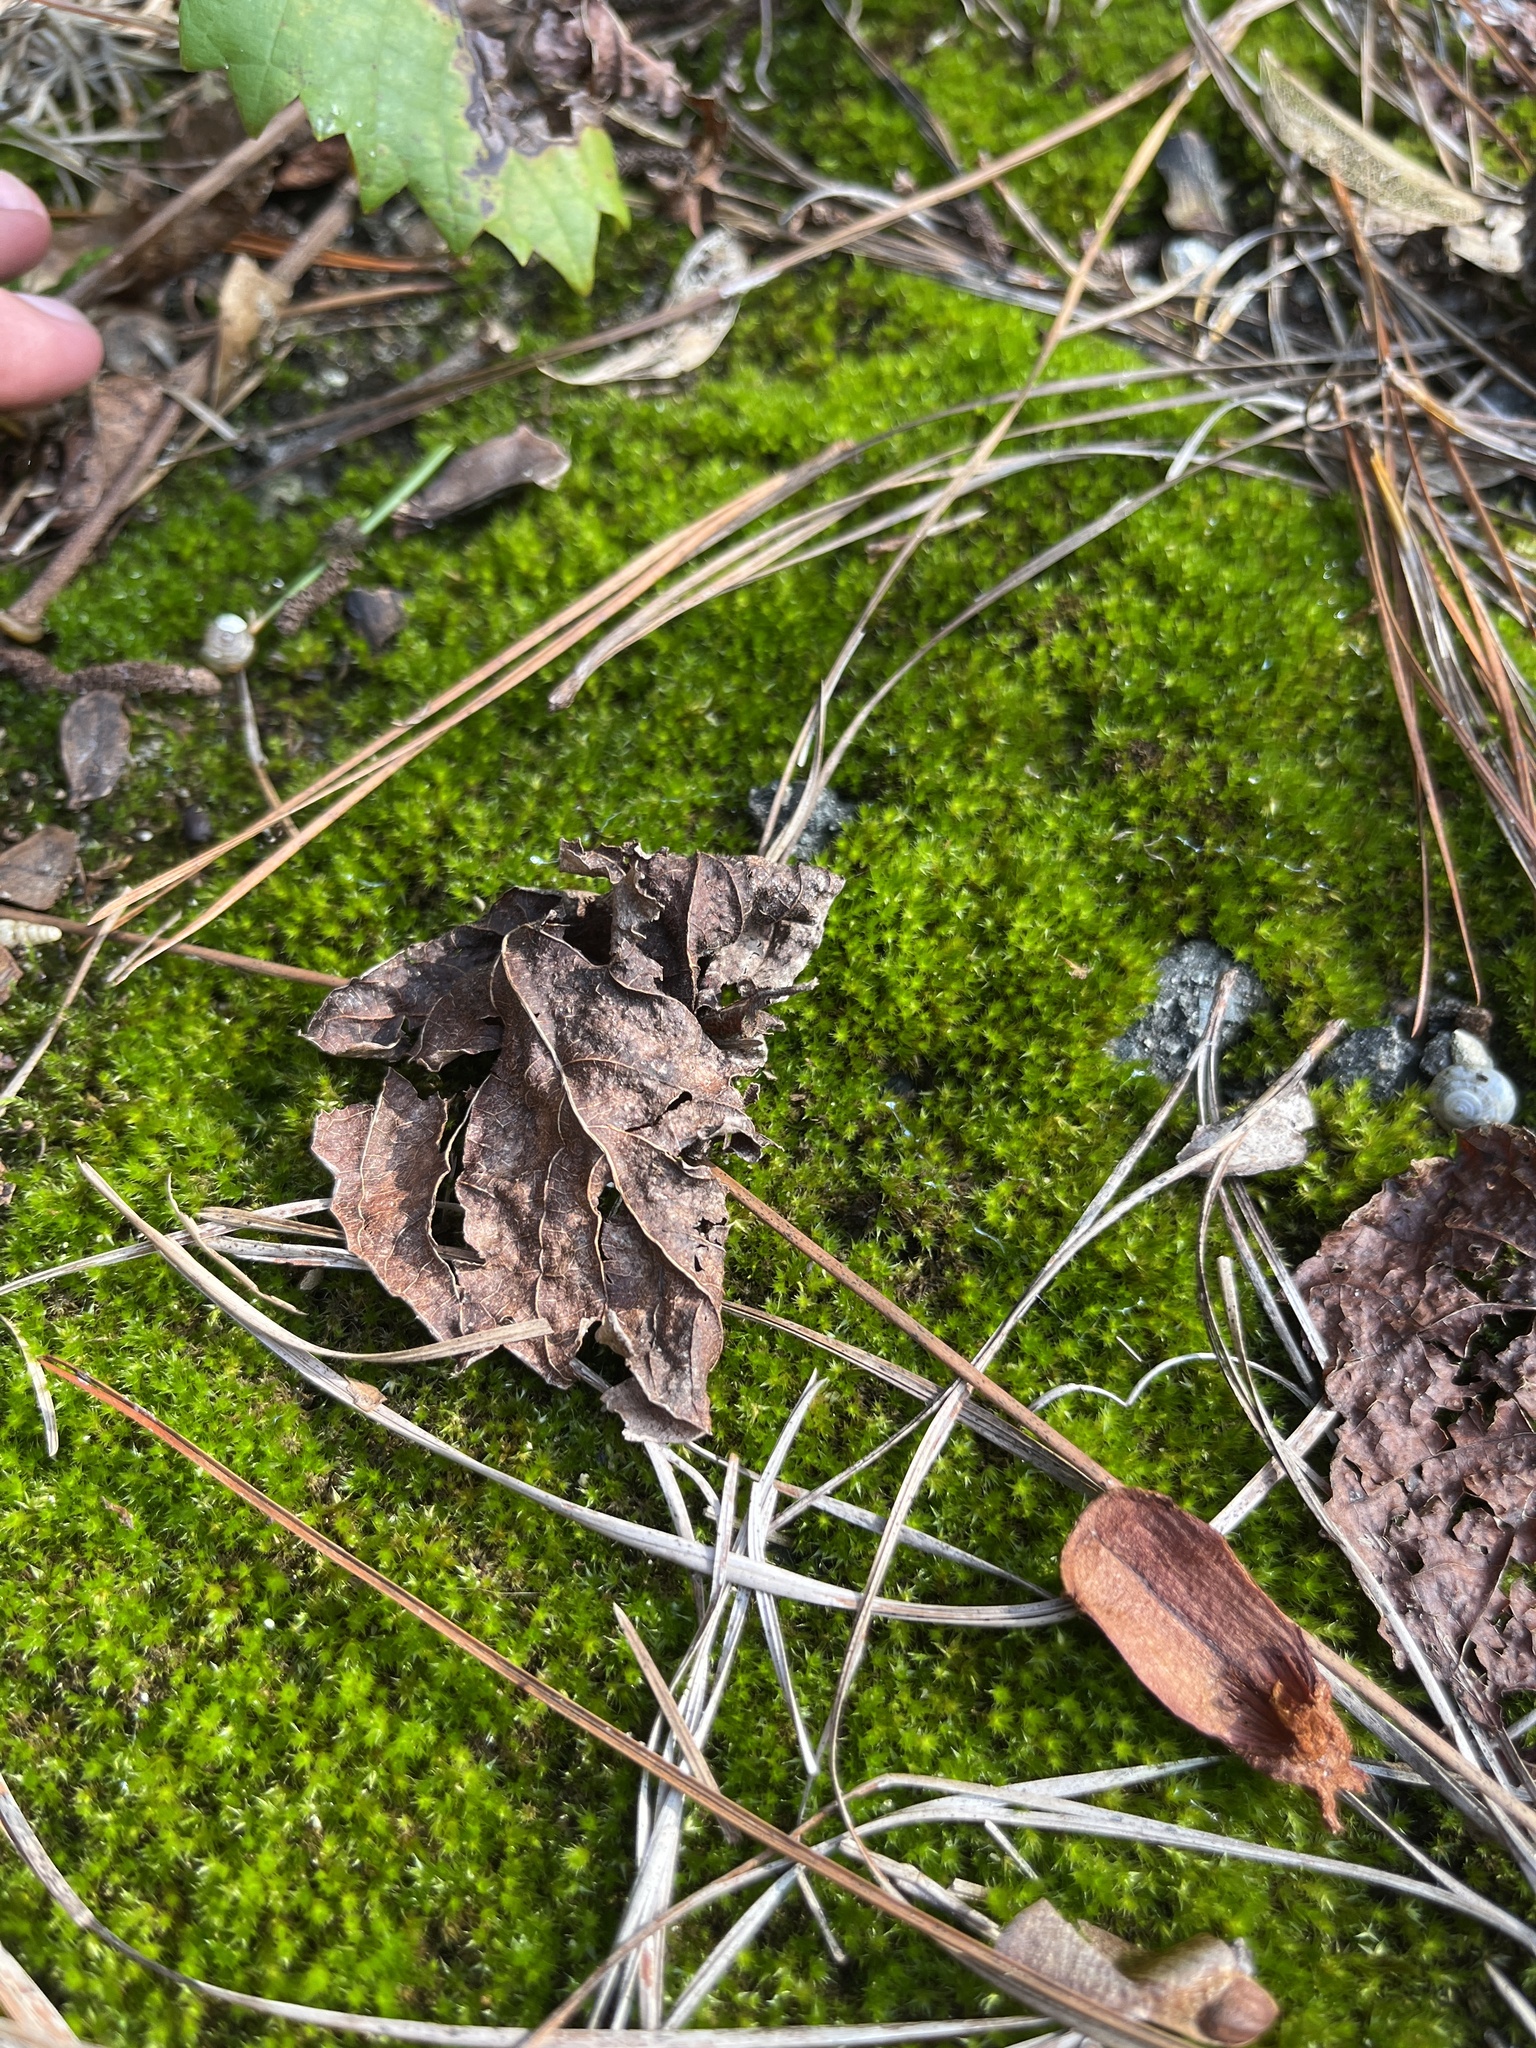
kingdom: Plantae
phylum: Bryophyta
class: Bryopsida
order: Dicranales
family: Leucobryaceae
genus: Leucobryum
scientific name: Leucobryum albidum
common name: White moss
